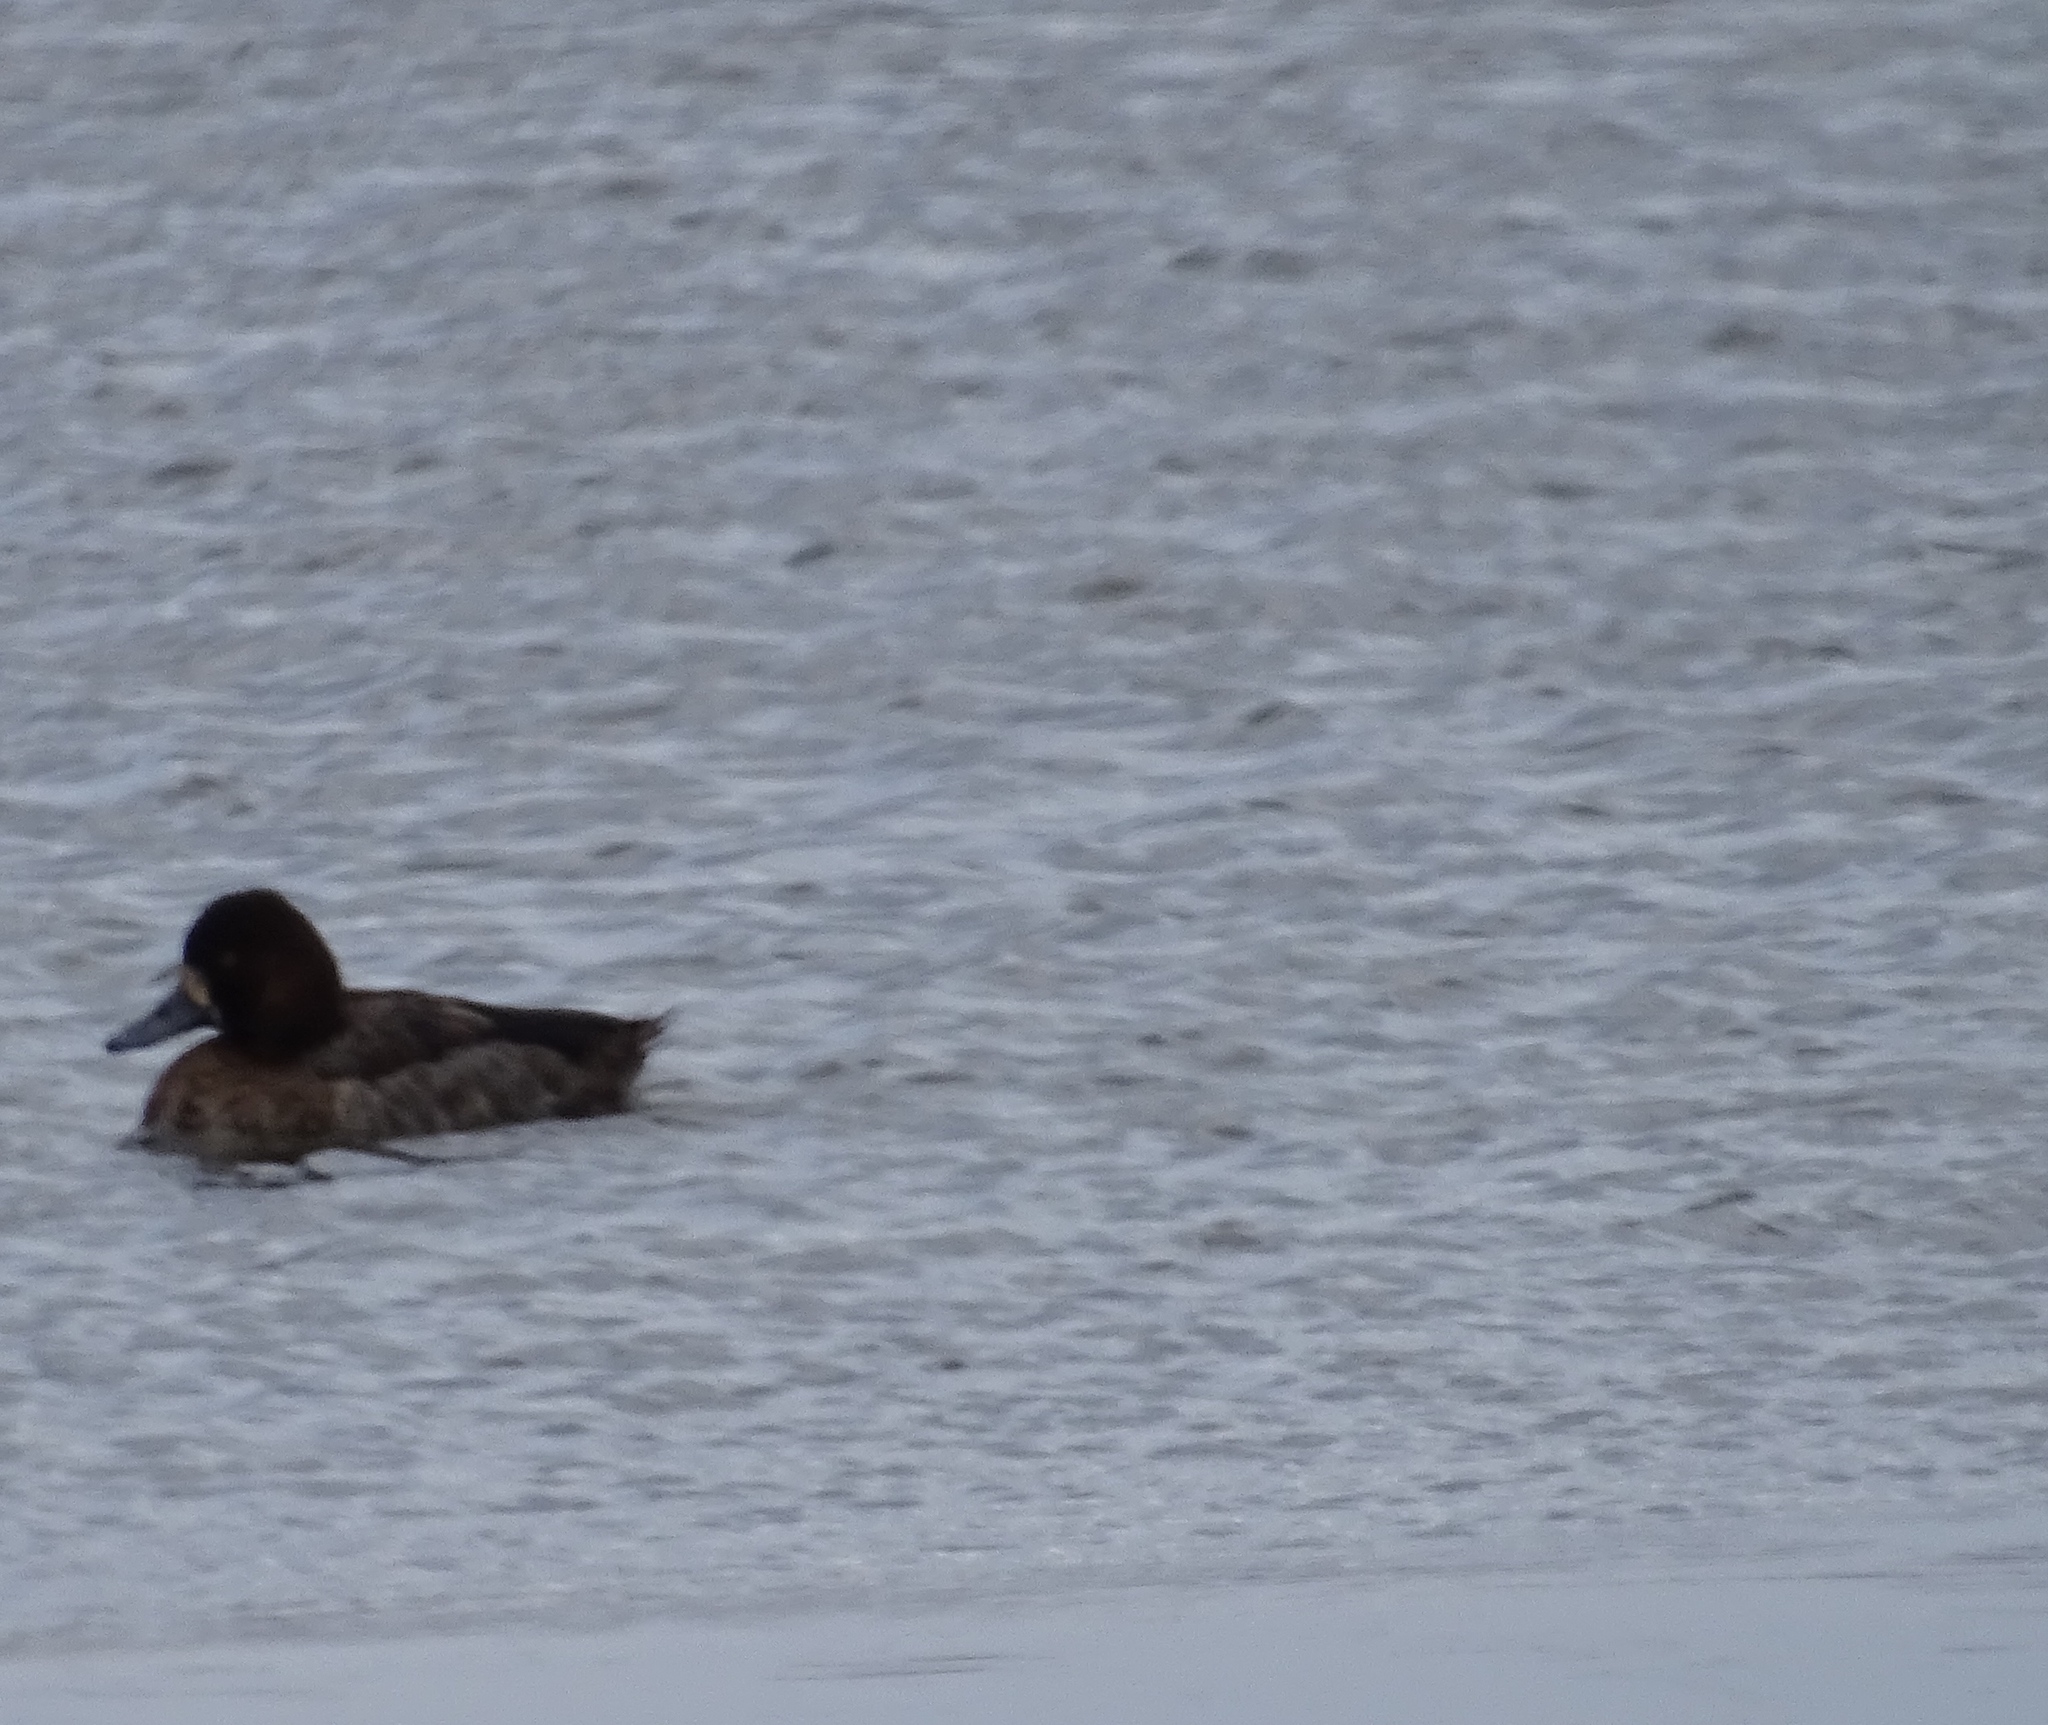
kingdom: Animalia
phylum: Chordata
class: Aves
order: Anseriformes
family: Anatidae
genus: Aythya
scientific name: Aythya affinis
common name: Lesser scaup
